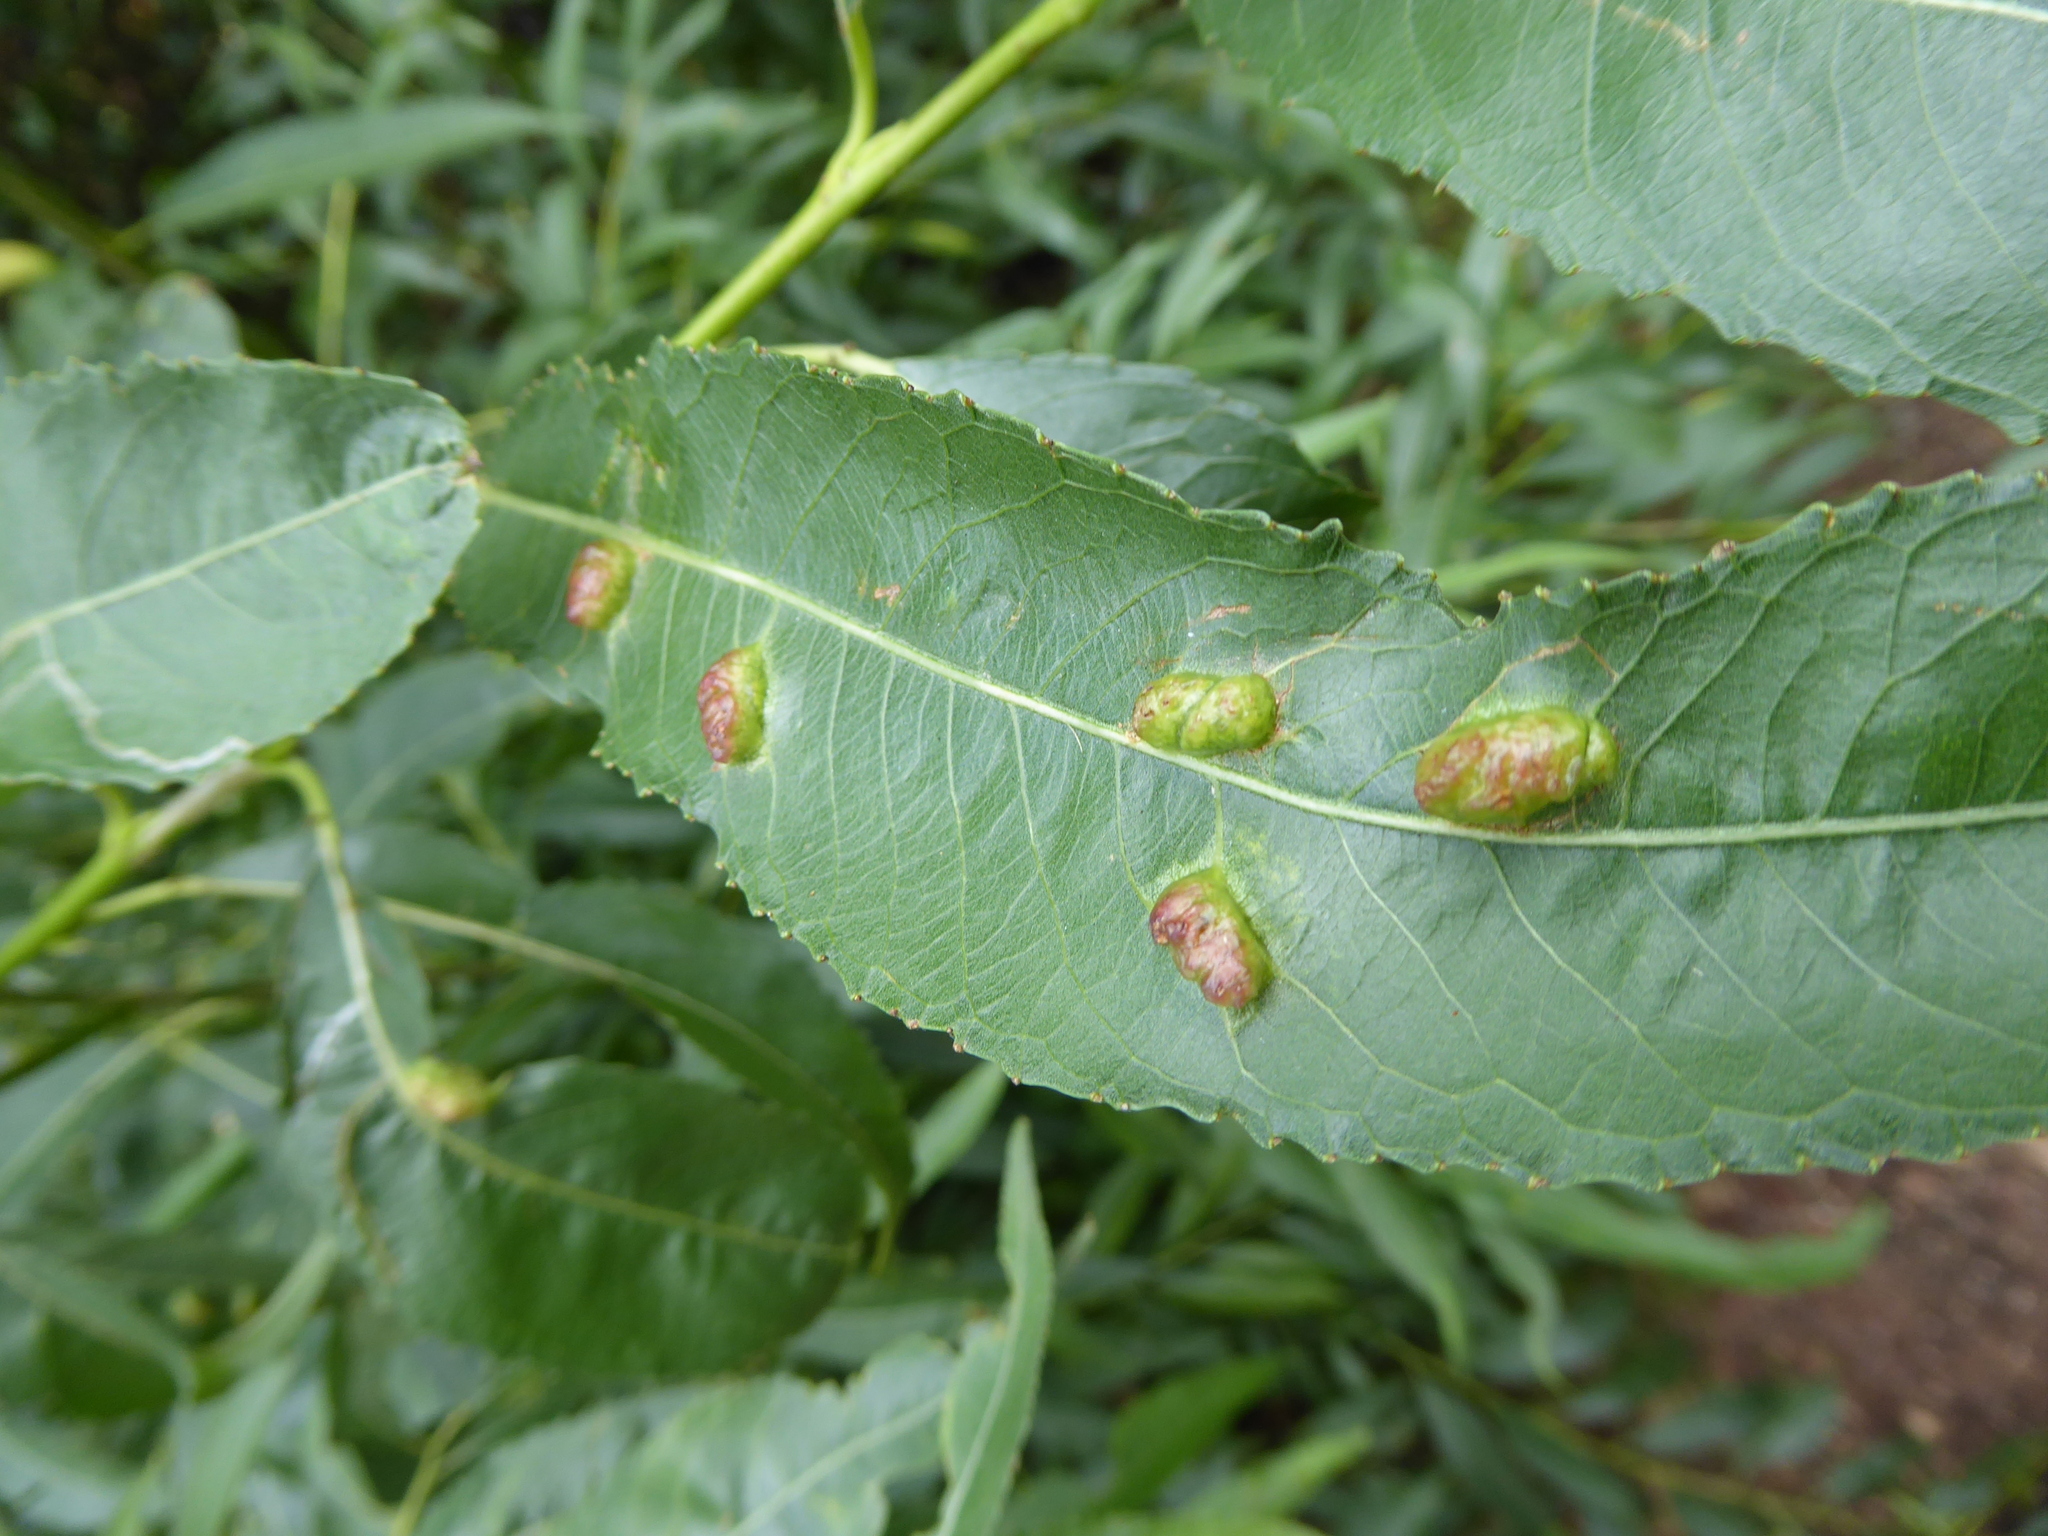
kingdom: Animalia
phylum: Arthropoda
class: Insecta
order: Hymenoptera
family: Tenthredinidae
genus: Pontania
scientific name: Pontania proxima
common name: Common sawfly
